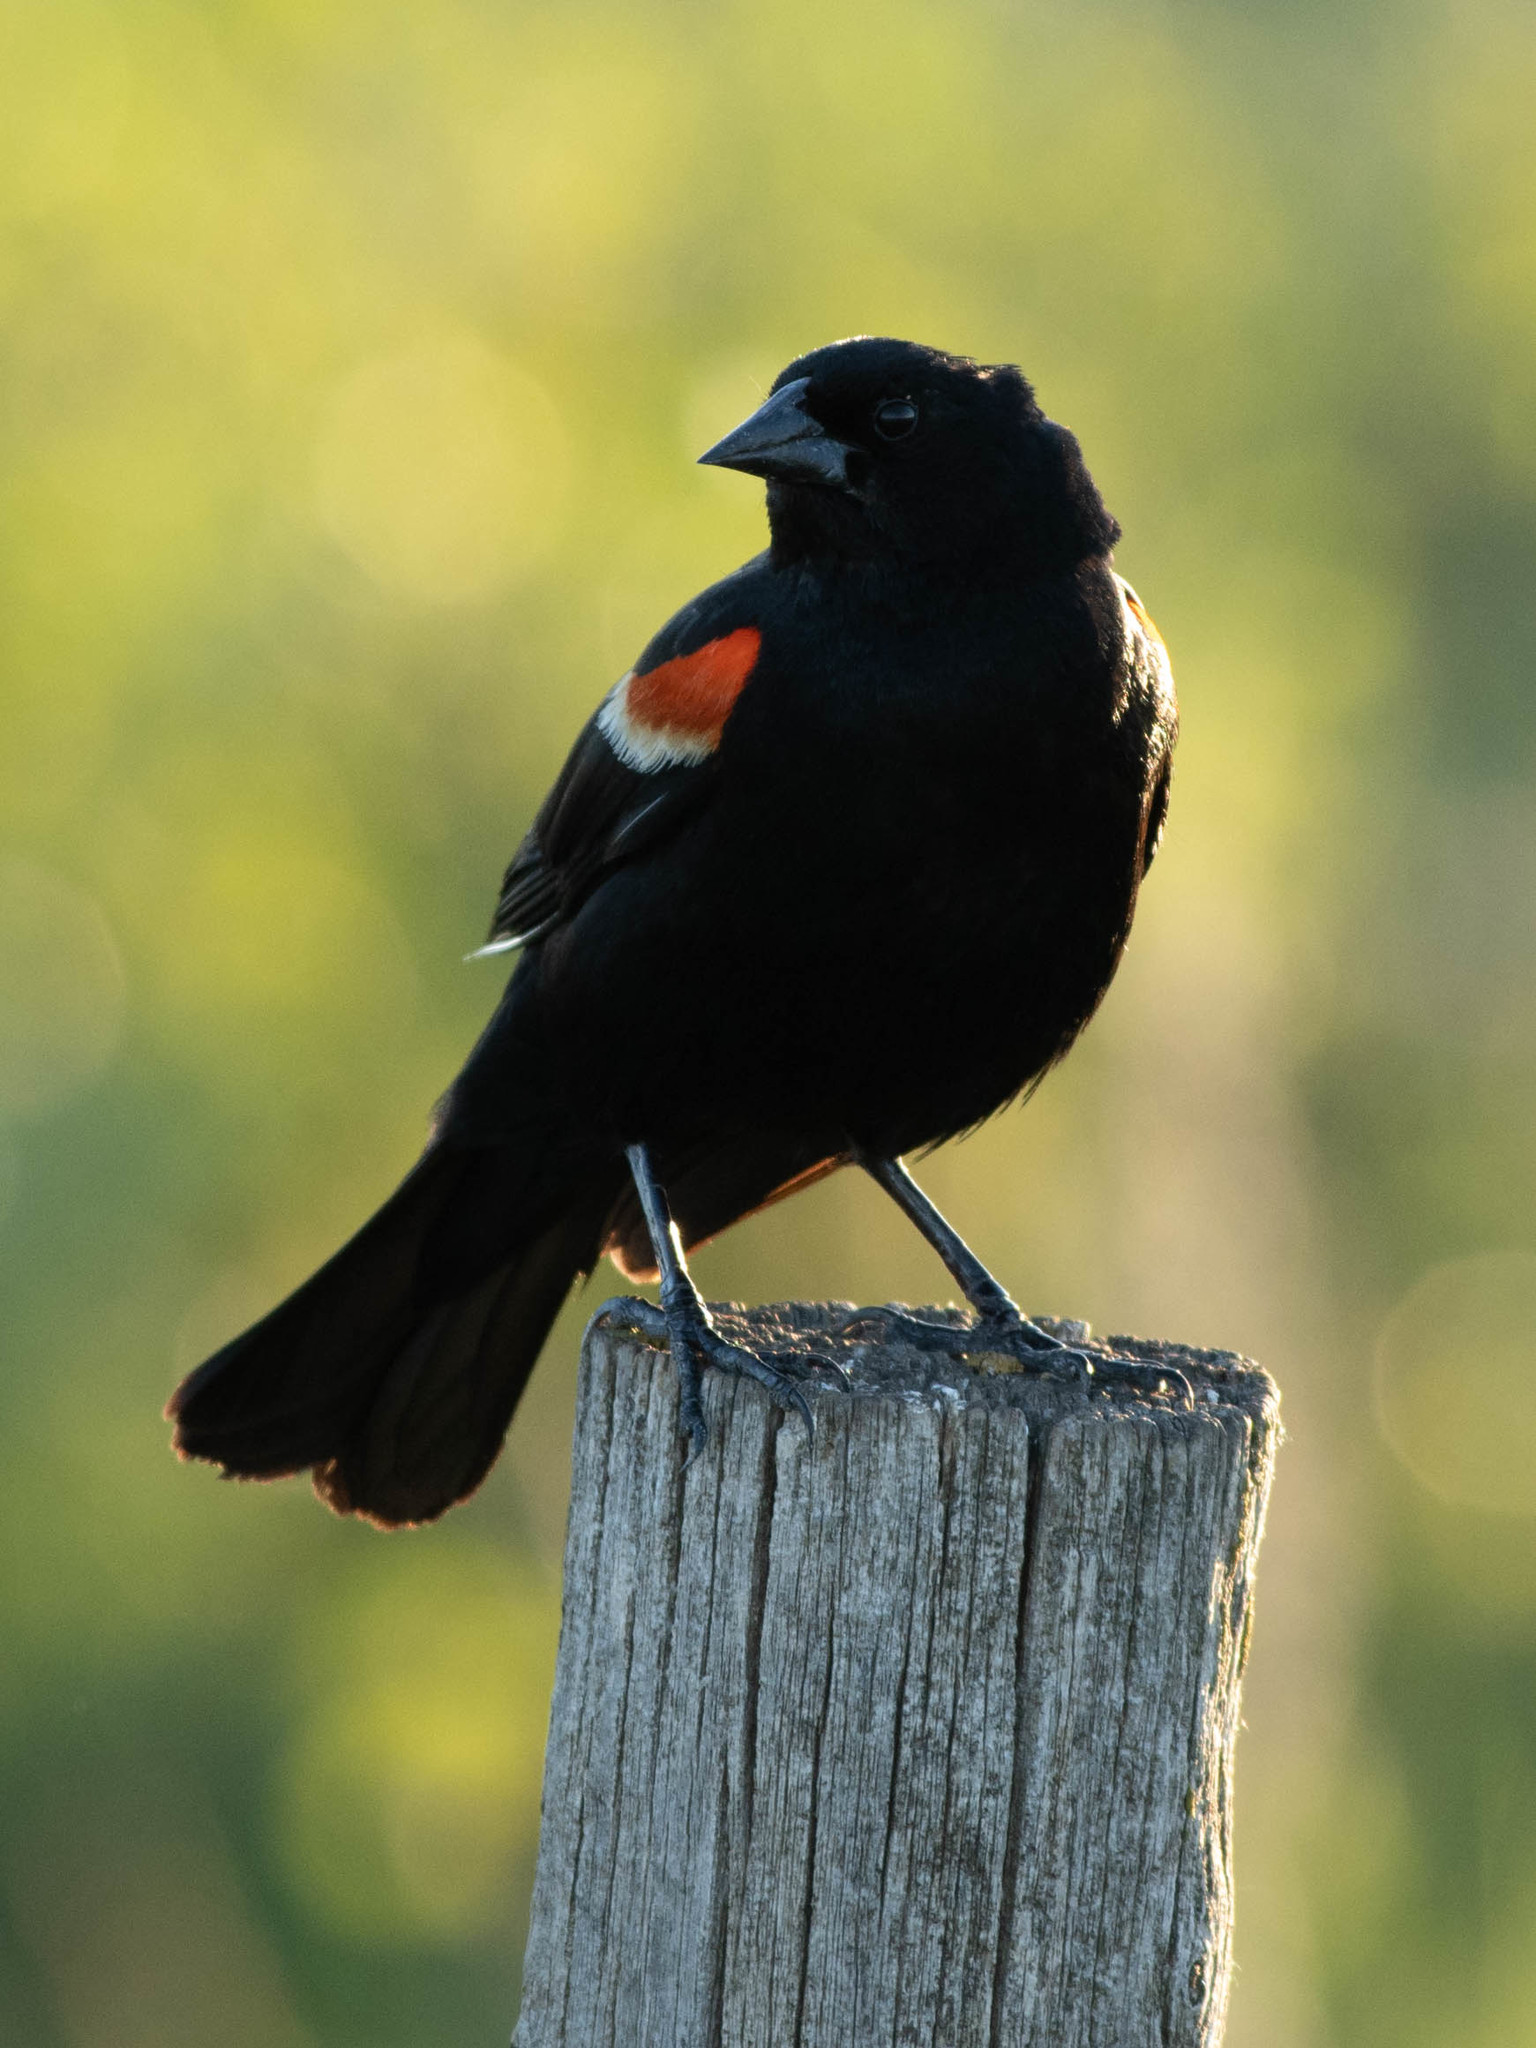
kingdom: Animalia
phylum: Chordata
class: Aves
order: Passeriformes
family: Icteridae
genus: Agelaius
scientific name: Agelaius phoeniceus
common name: Red-winged blackbird
